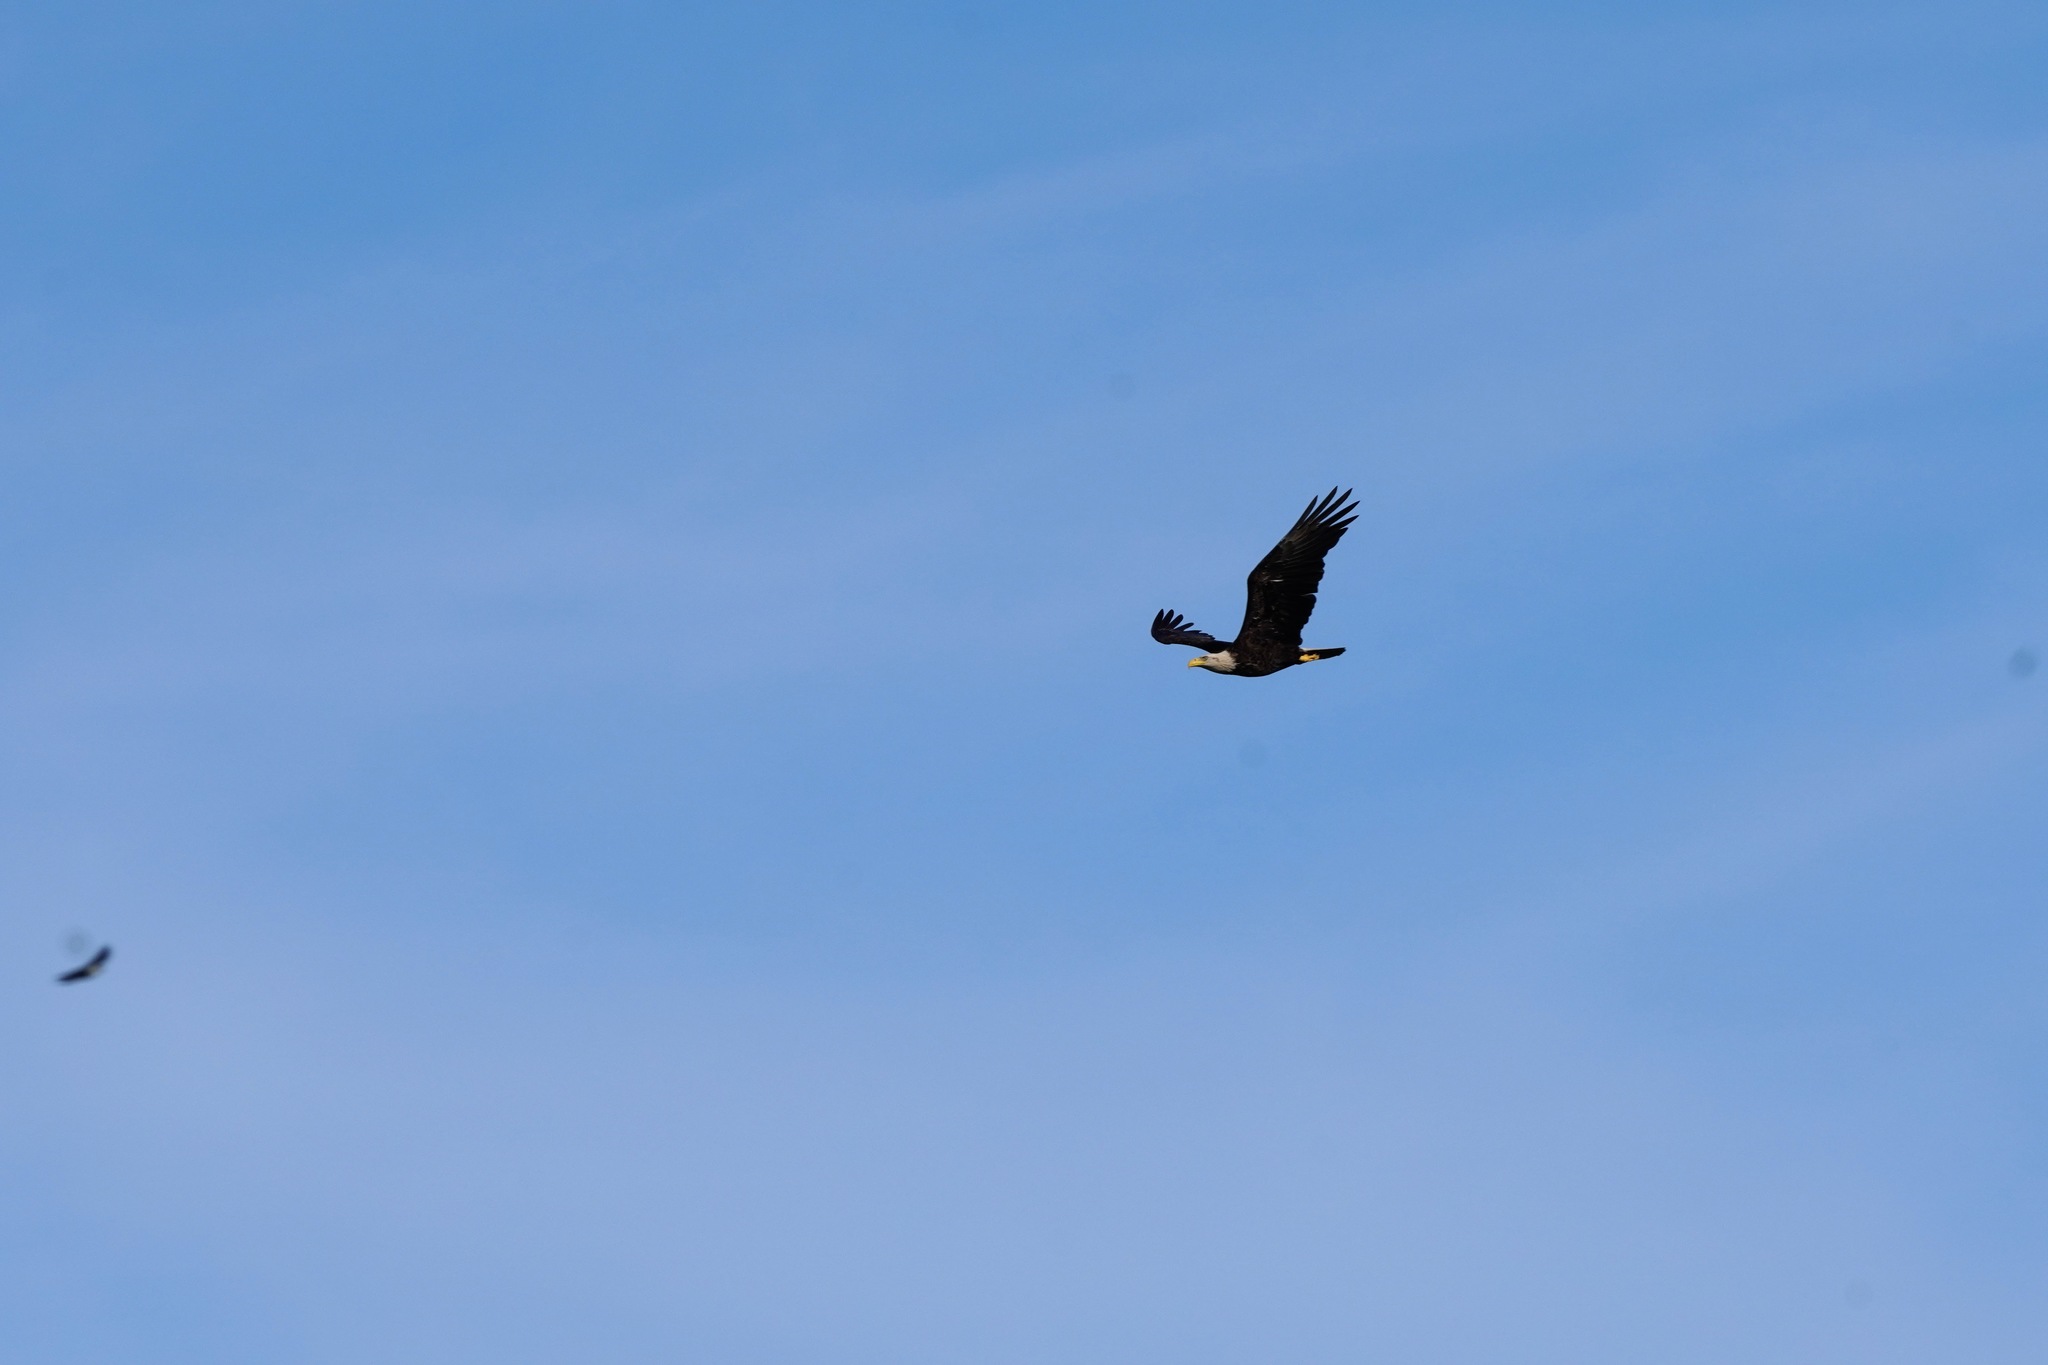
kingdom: Animalia
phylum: Chordata
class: Aves
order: Accipitriformes
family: Accipitridae
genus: Haliaeetus
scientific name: Haliaeetus leucocephalus
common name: Bald eagle
